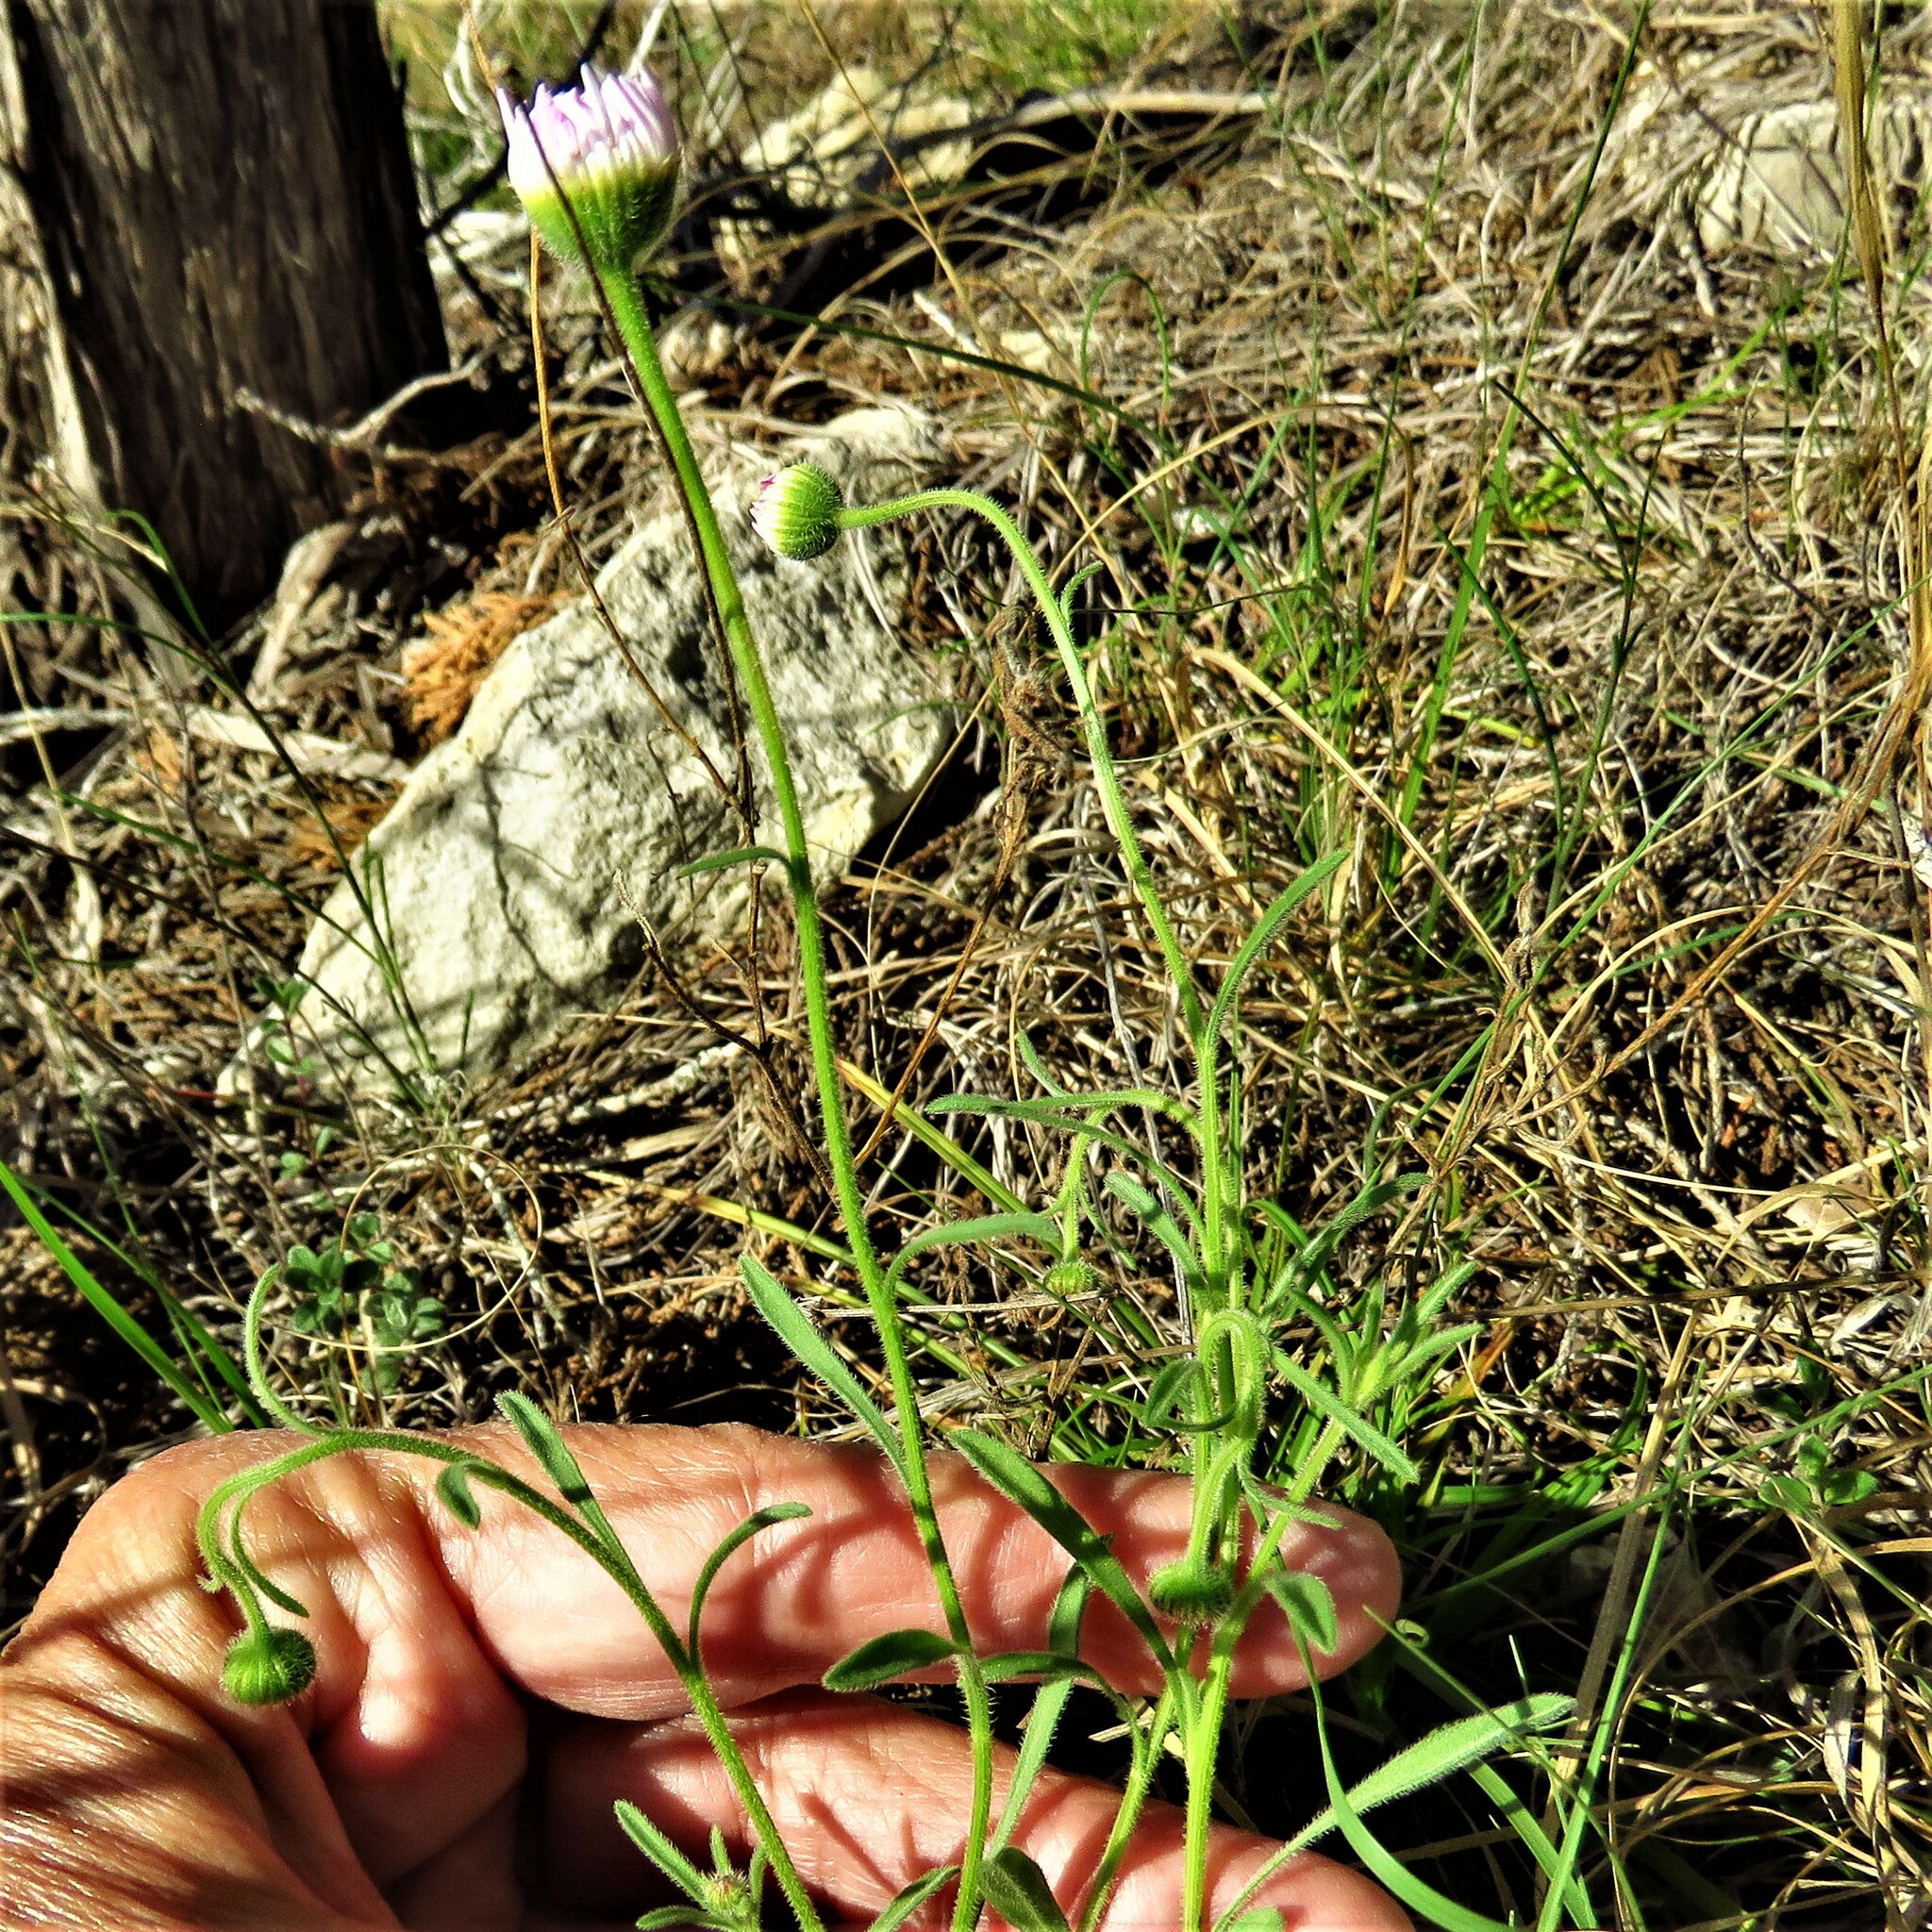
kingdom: Plantae
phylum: Tracheophyta
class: Magnoliopsida
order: Asterales
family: Asteraceae
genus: Erigeron
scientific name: Erigeron strigosus
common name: Common eastern fleabane
